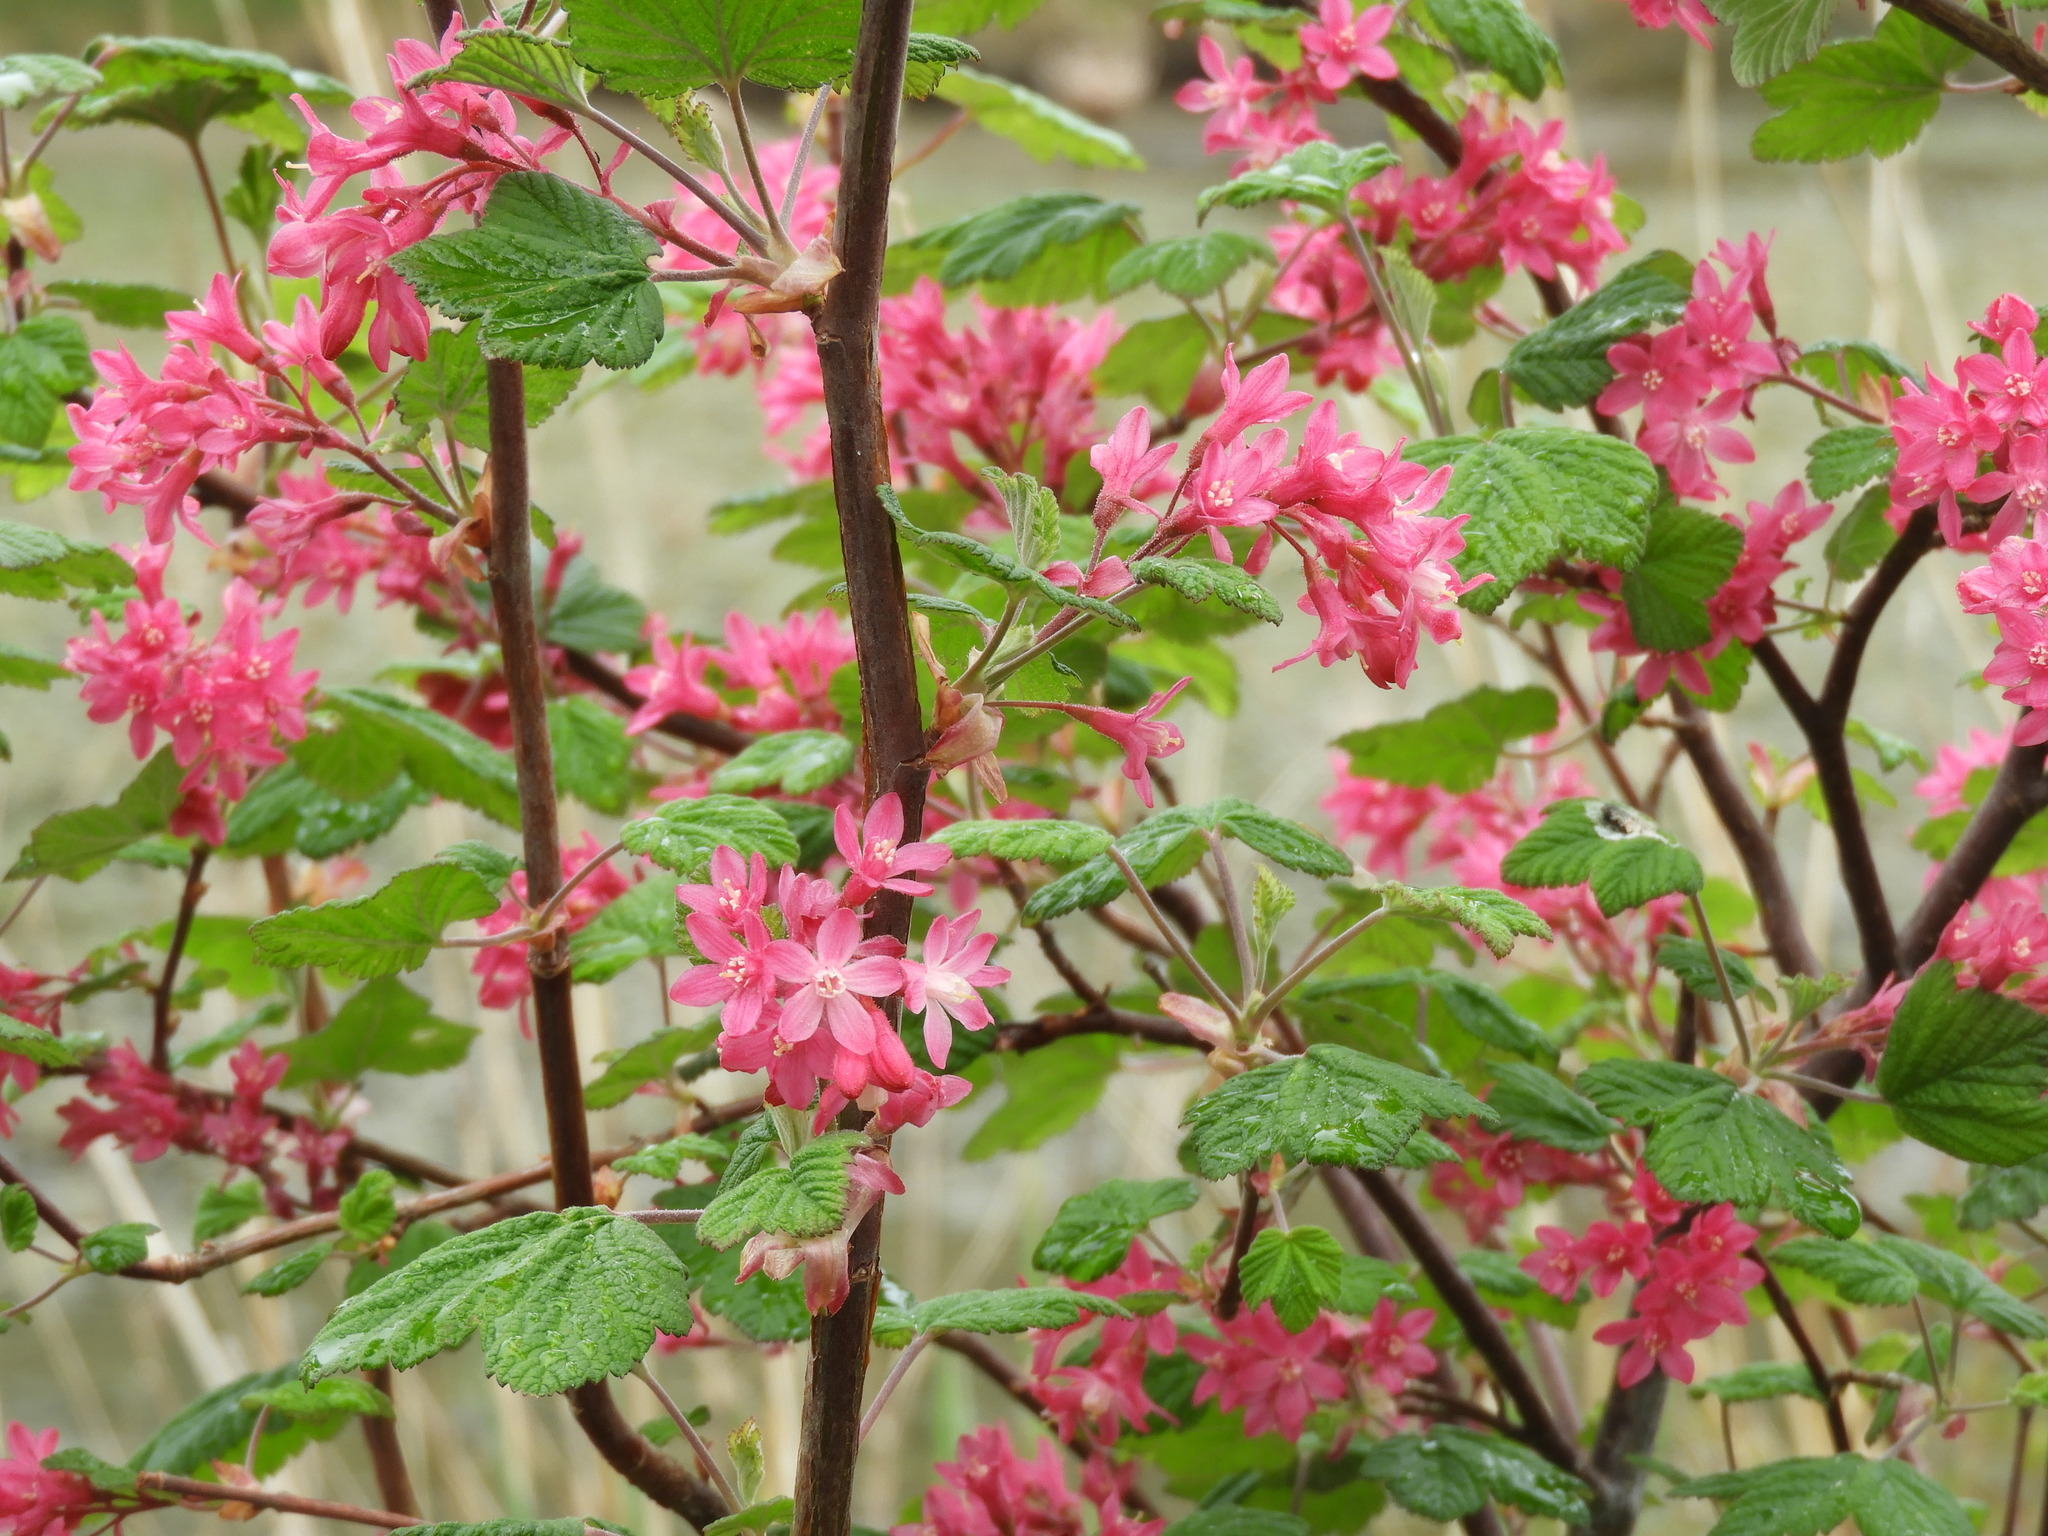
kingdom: Plantae
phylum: Tracheophyta
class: Magnoliopsida
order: Saxifragales
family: Grossulariaceae
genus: Ribes
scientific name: Ribes sanguineum
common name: Flowering currant
